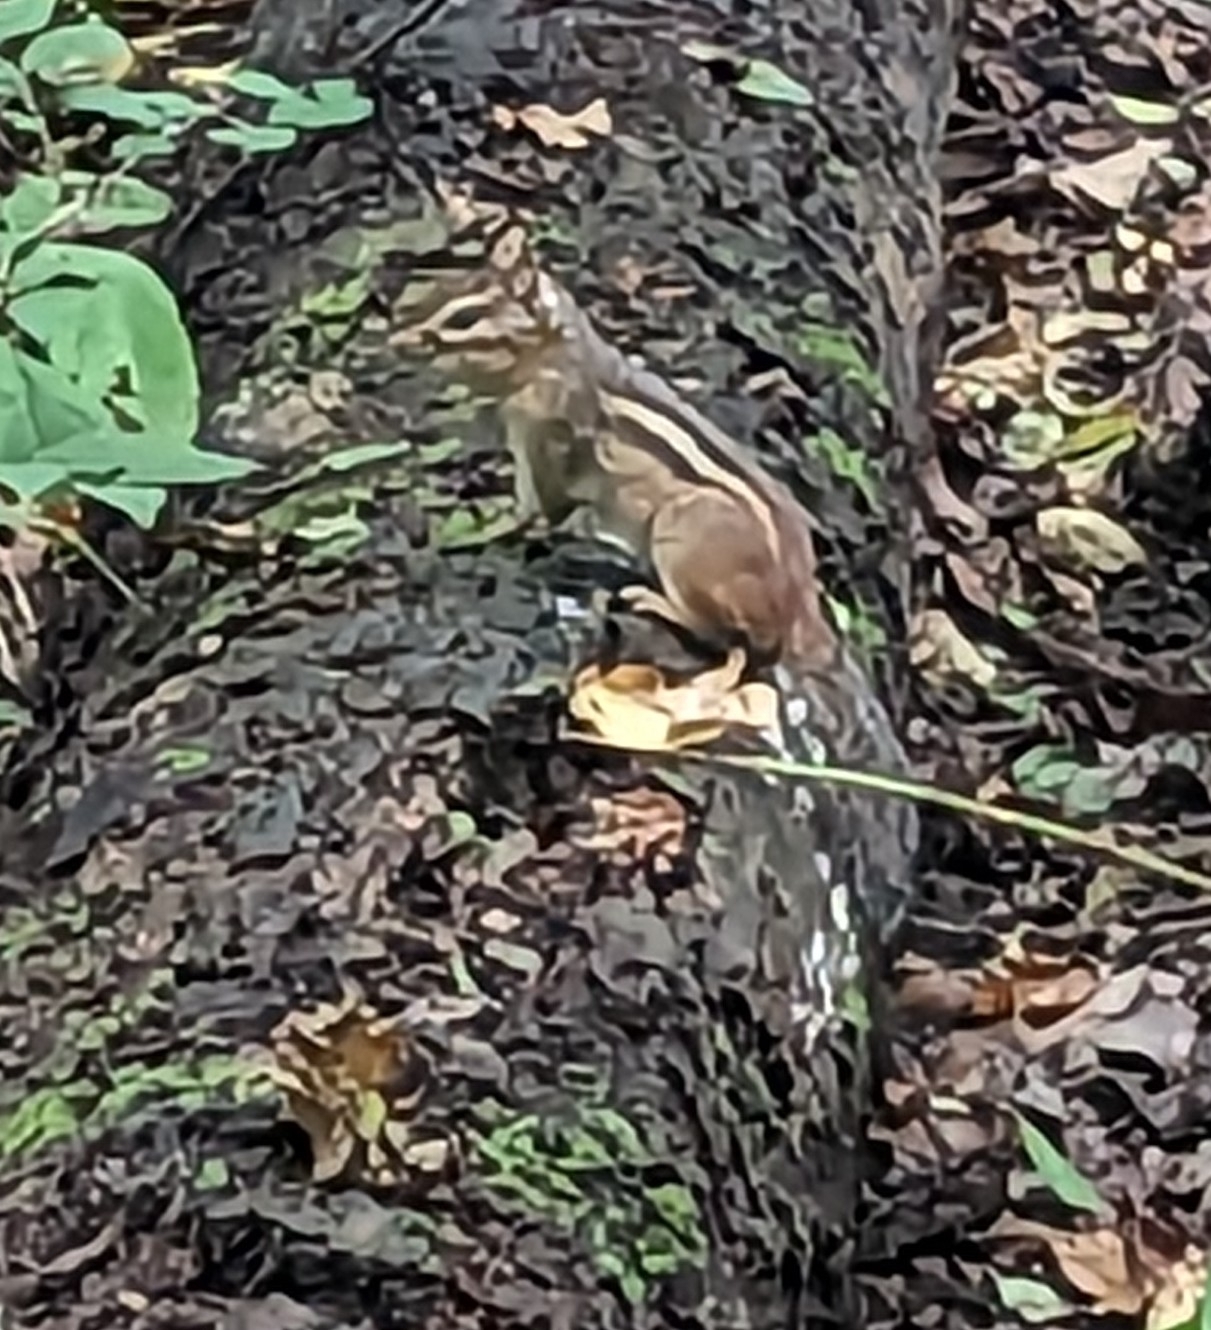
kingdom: Animalia
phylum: Chordata
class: Mammalia
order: Rodentia
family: Sciuridae
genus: Tamias
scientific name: Tamias striatus
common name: Eastern chipmunk
